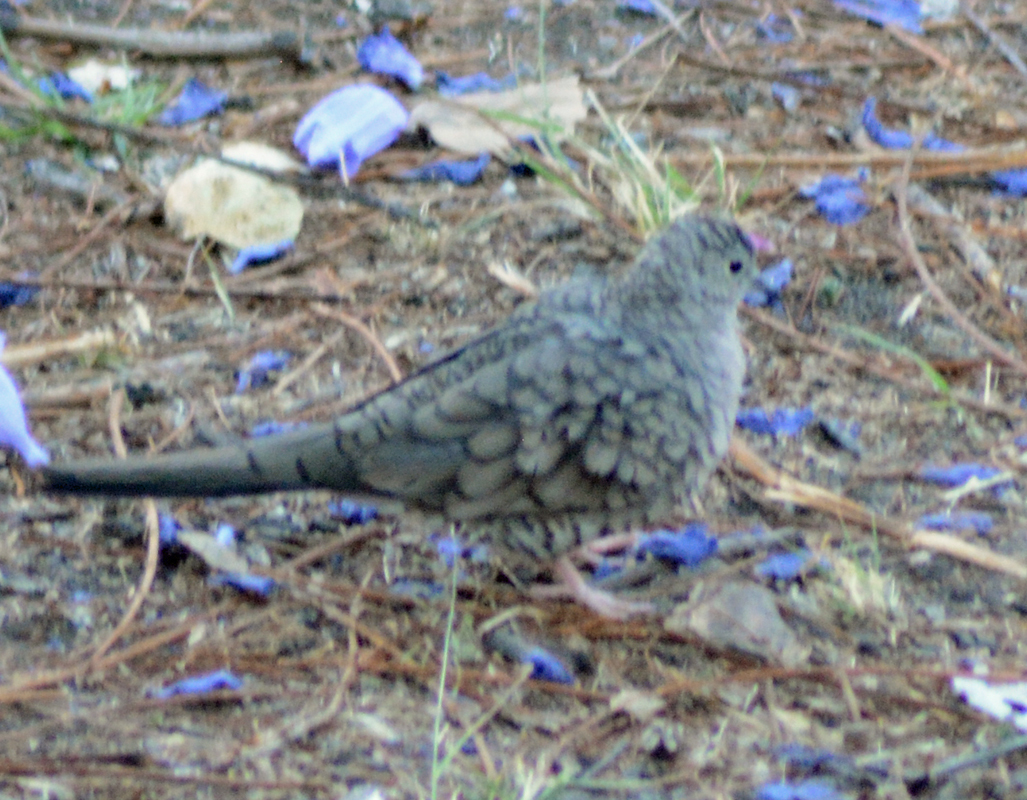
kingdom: Animalia
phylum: Chordata
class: Aves
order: Columbiformes
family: Columbidae
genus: Columbina
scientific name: Columbina inca
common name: Inca dove
